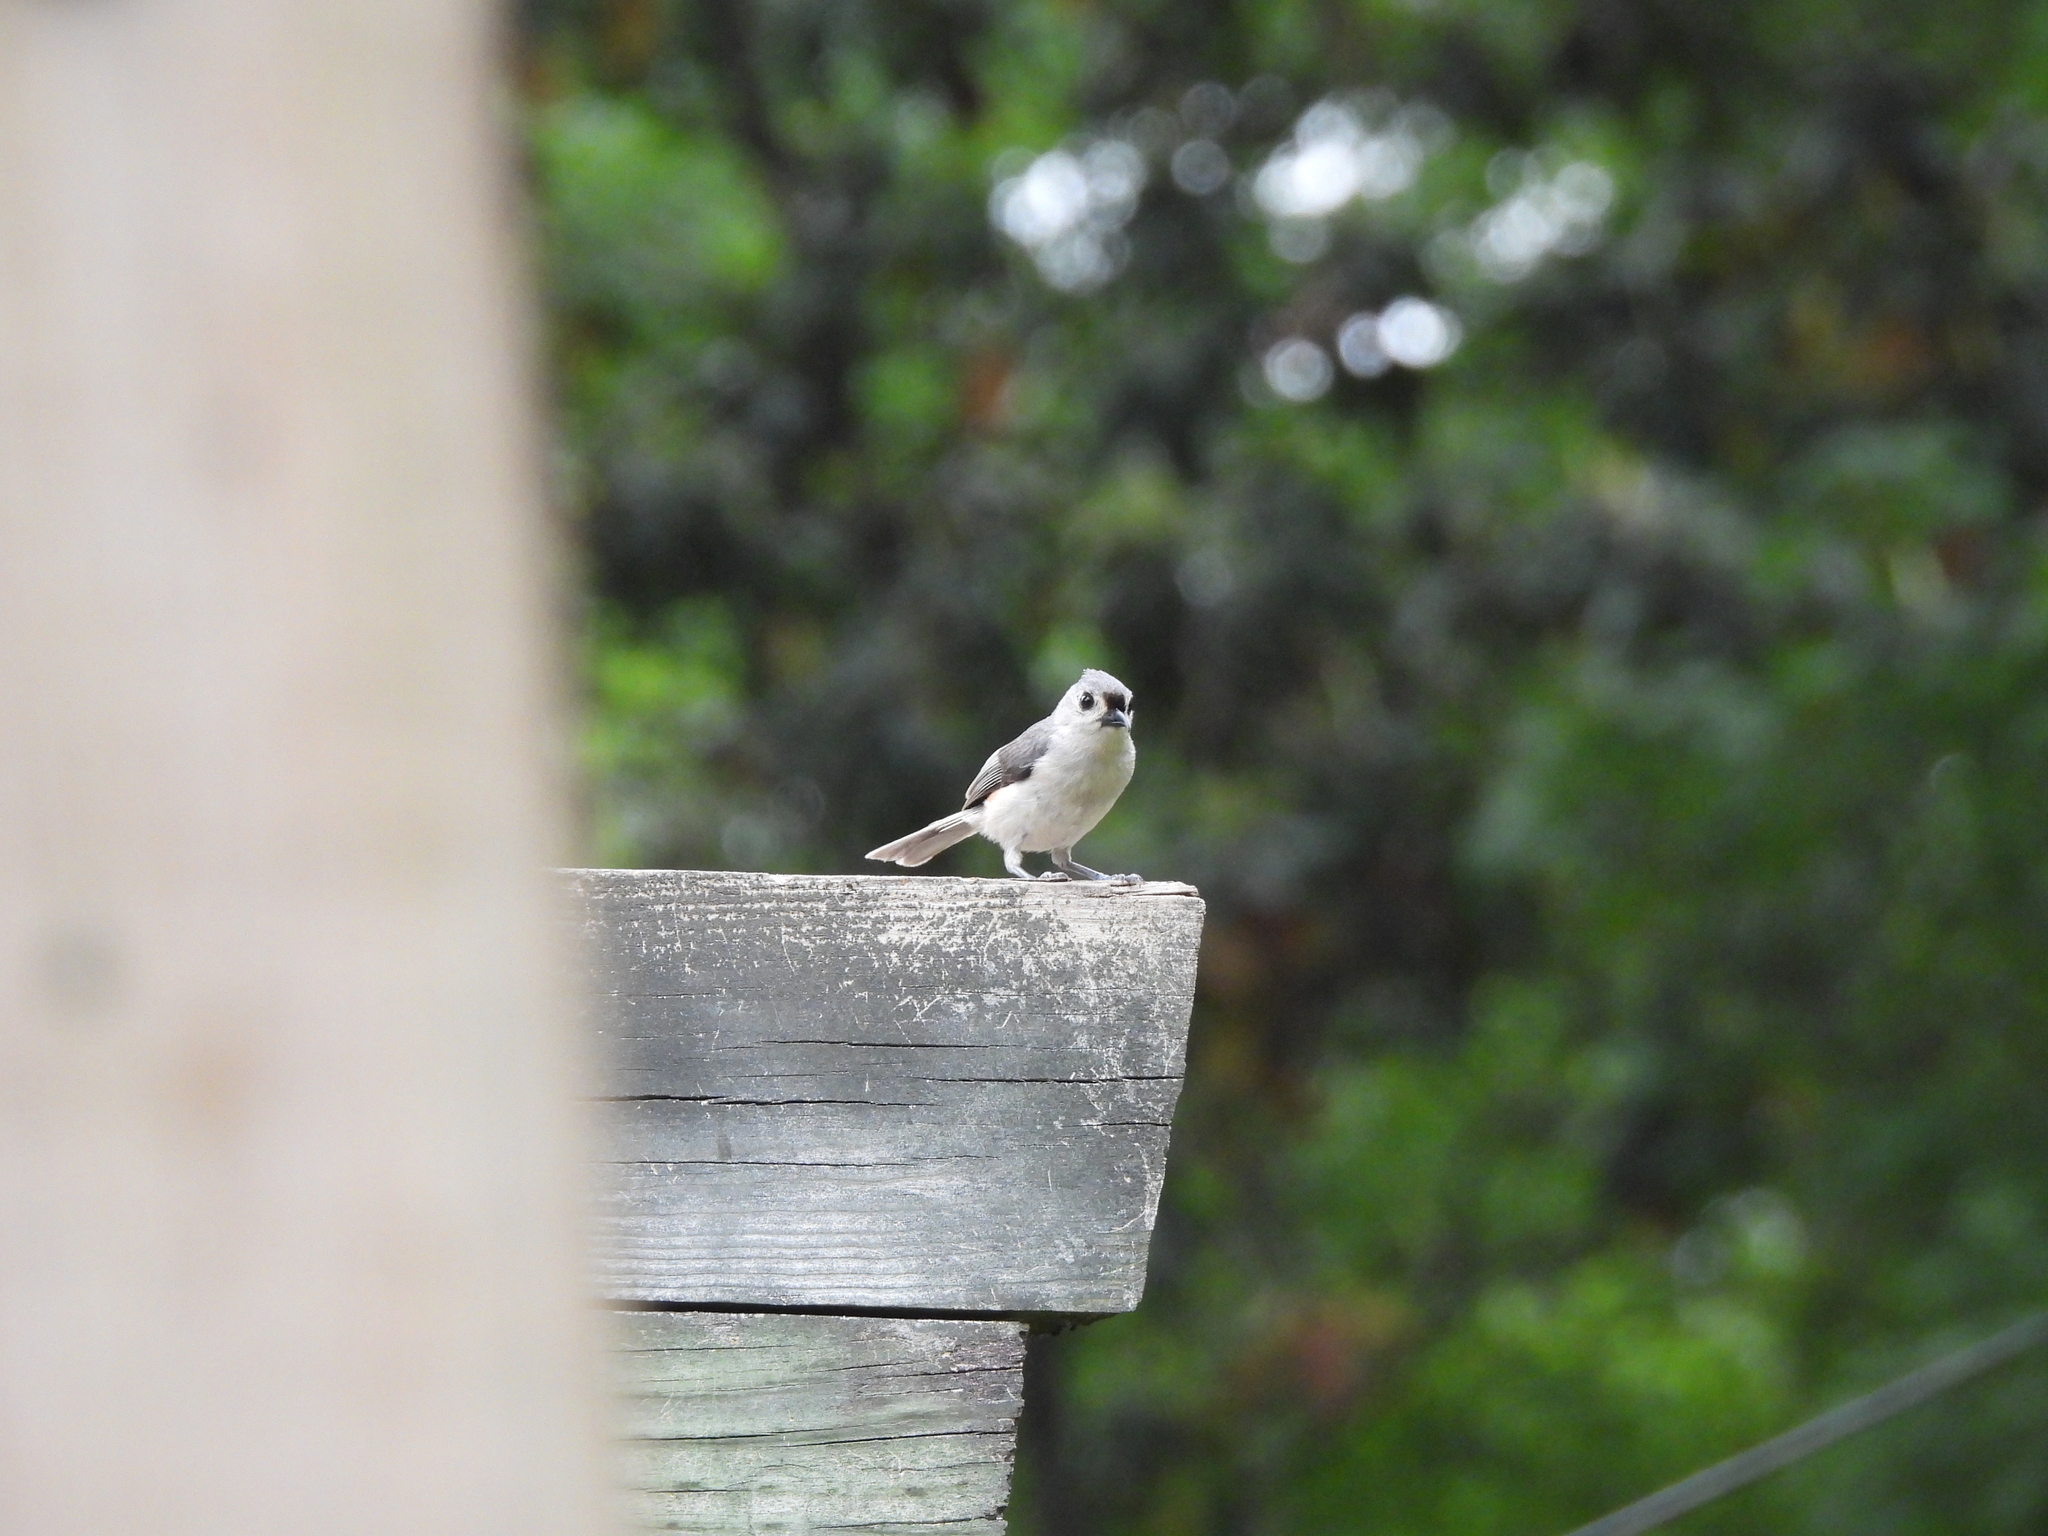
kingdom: Animalia
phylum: Chordata
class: Aves
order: Passeriformes
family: Paridae
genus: Baeolophus
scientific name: Baeolophus bicolor
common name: Tufted titmouse
